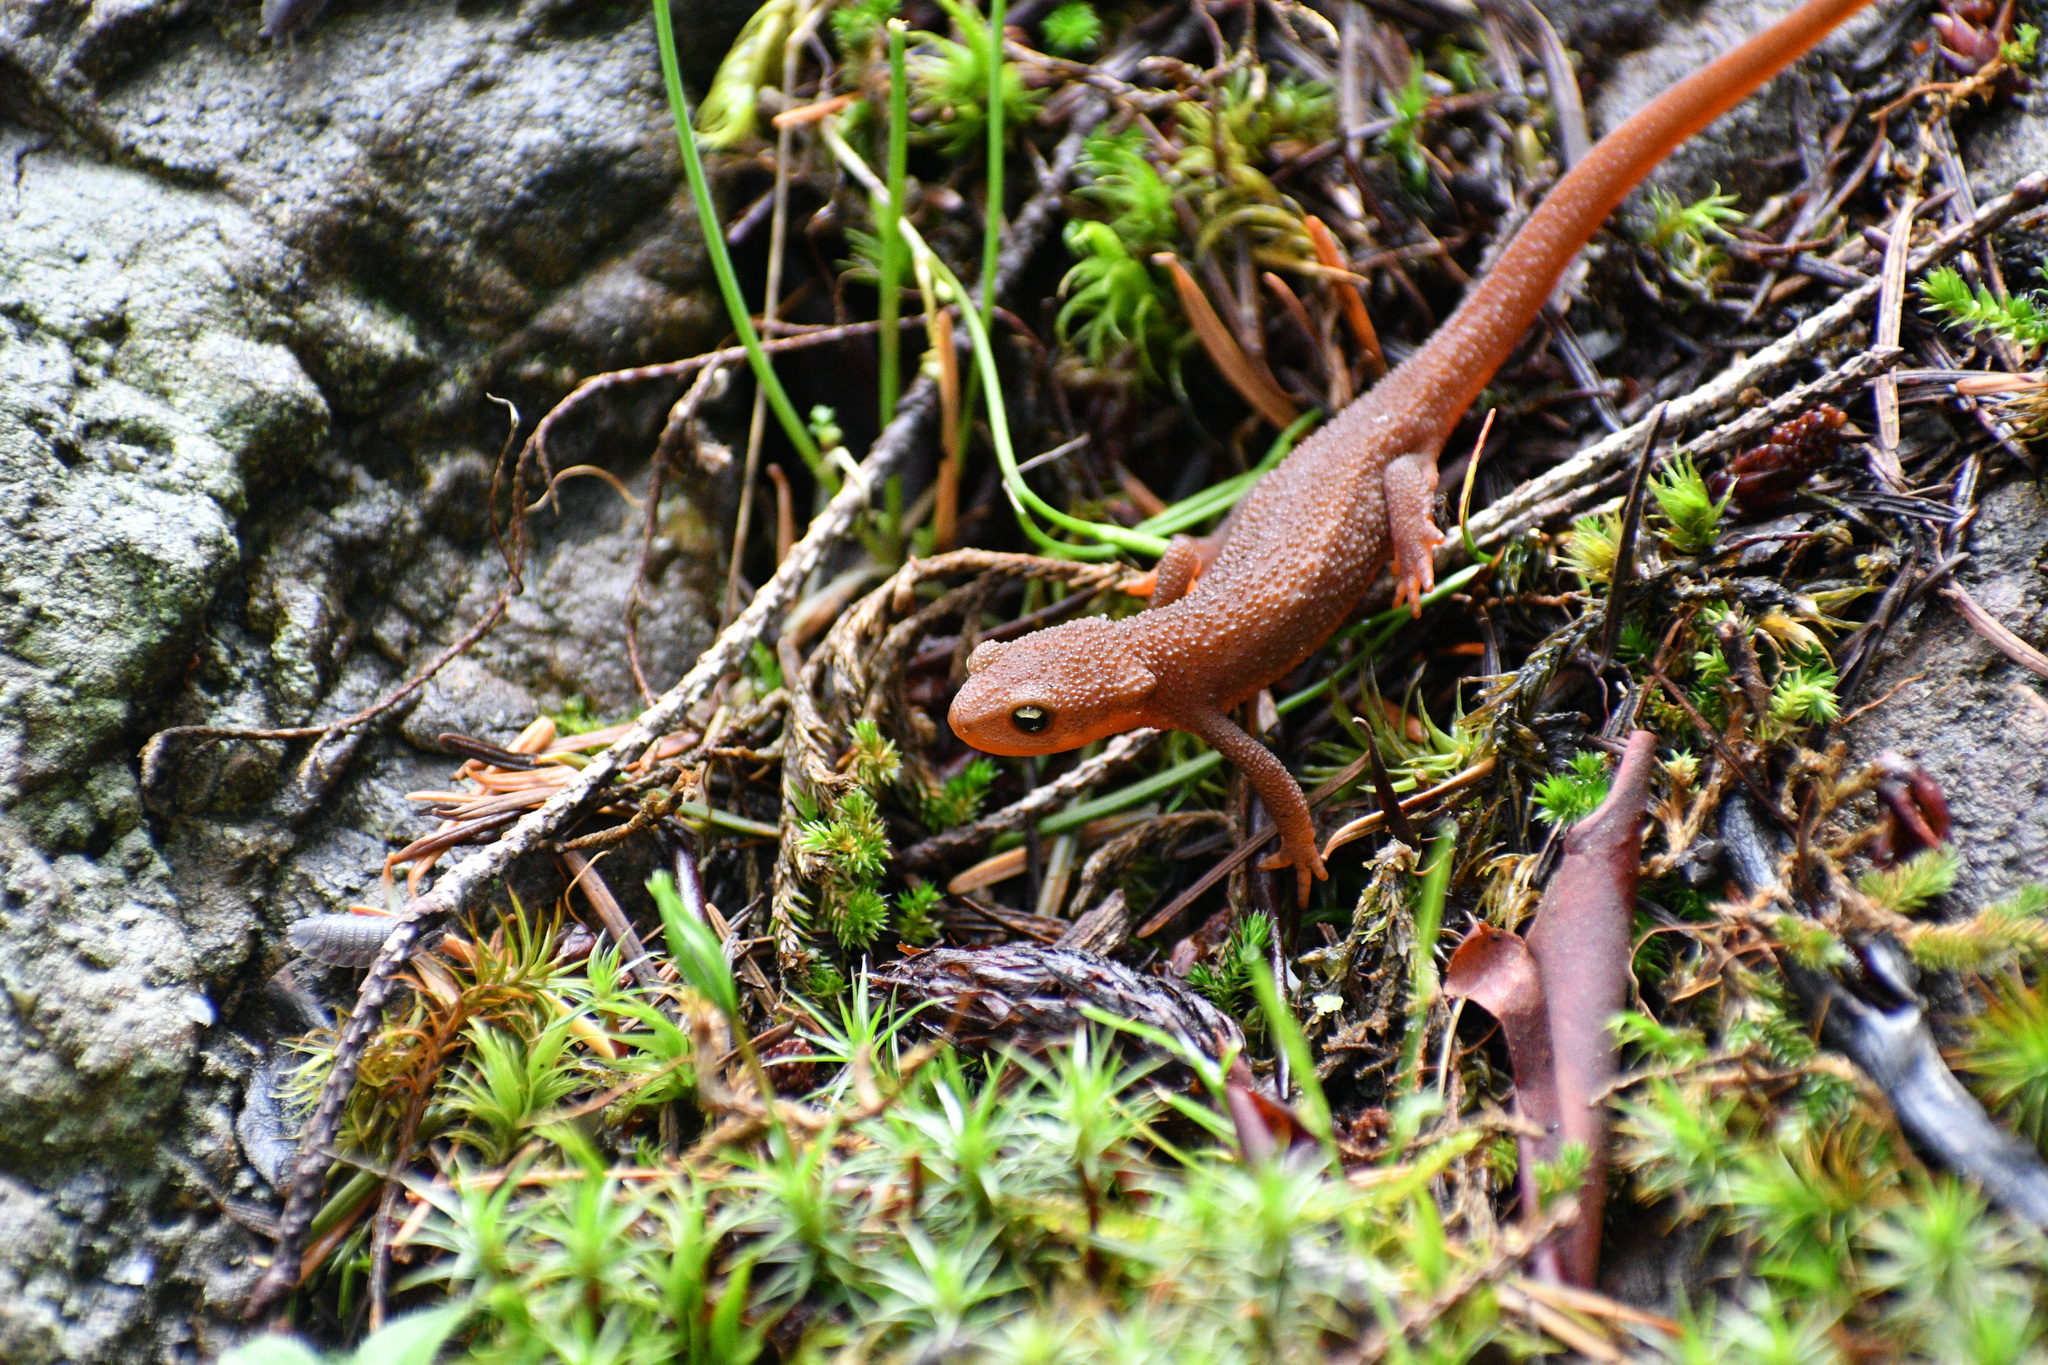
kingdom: Animalia
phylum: Chordata
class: Amphibia
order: Caudata
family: Salamandridae
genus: Taricha
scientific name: Taricha granulosa
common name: Roughskin newt
